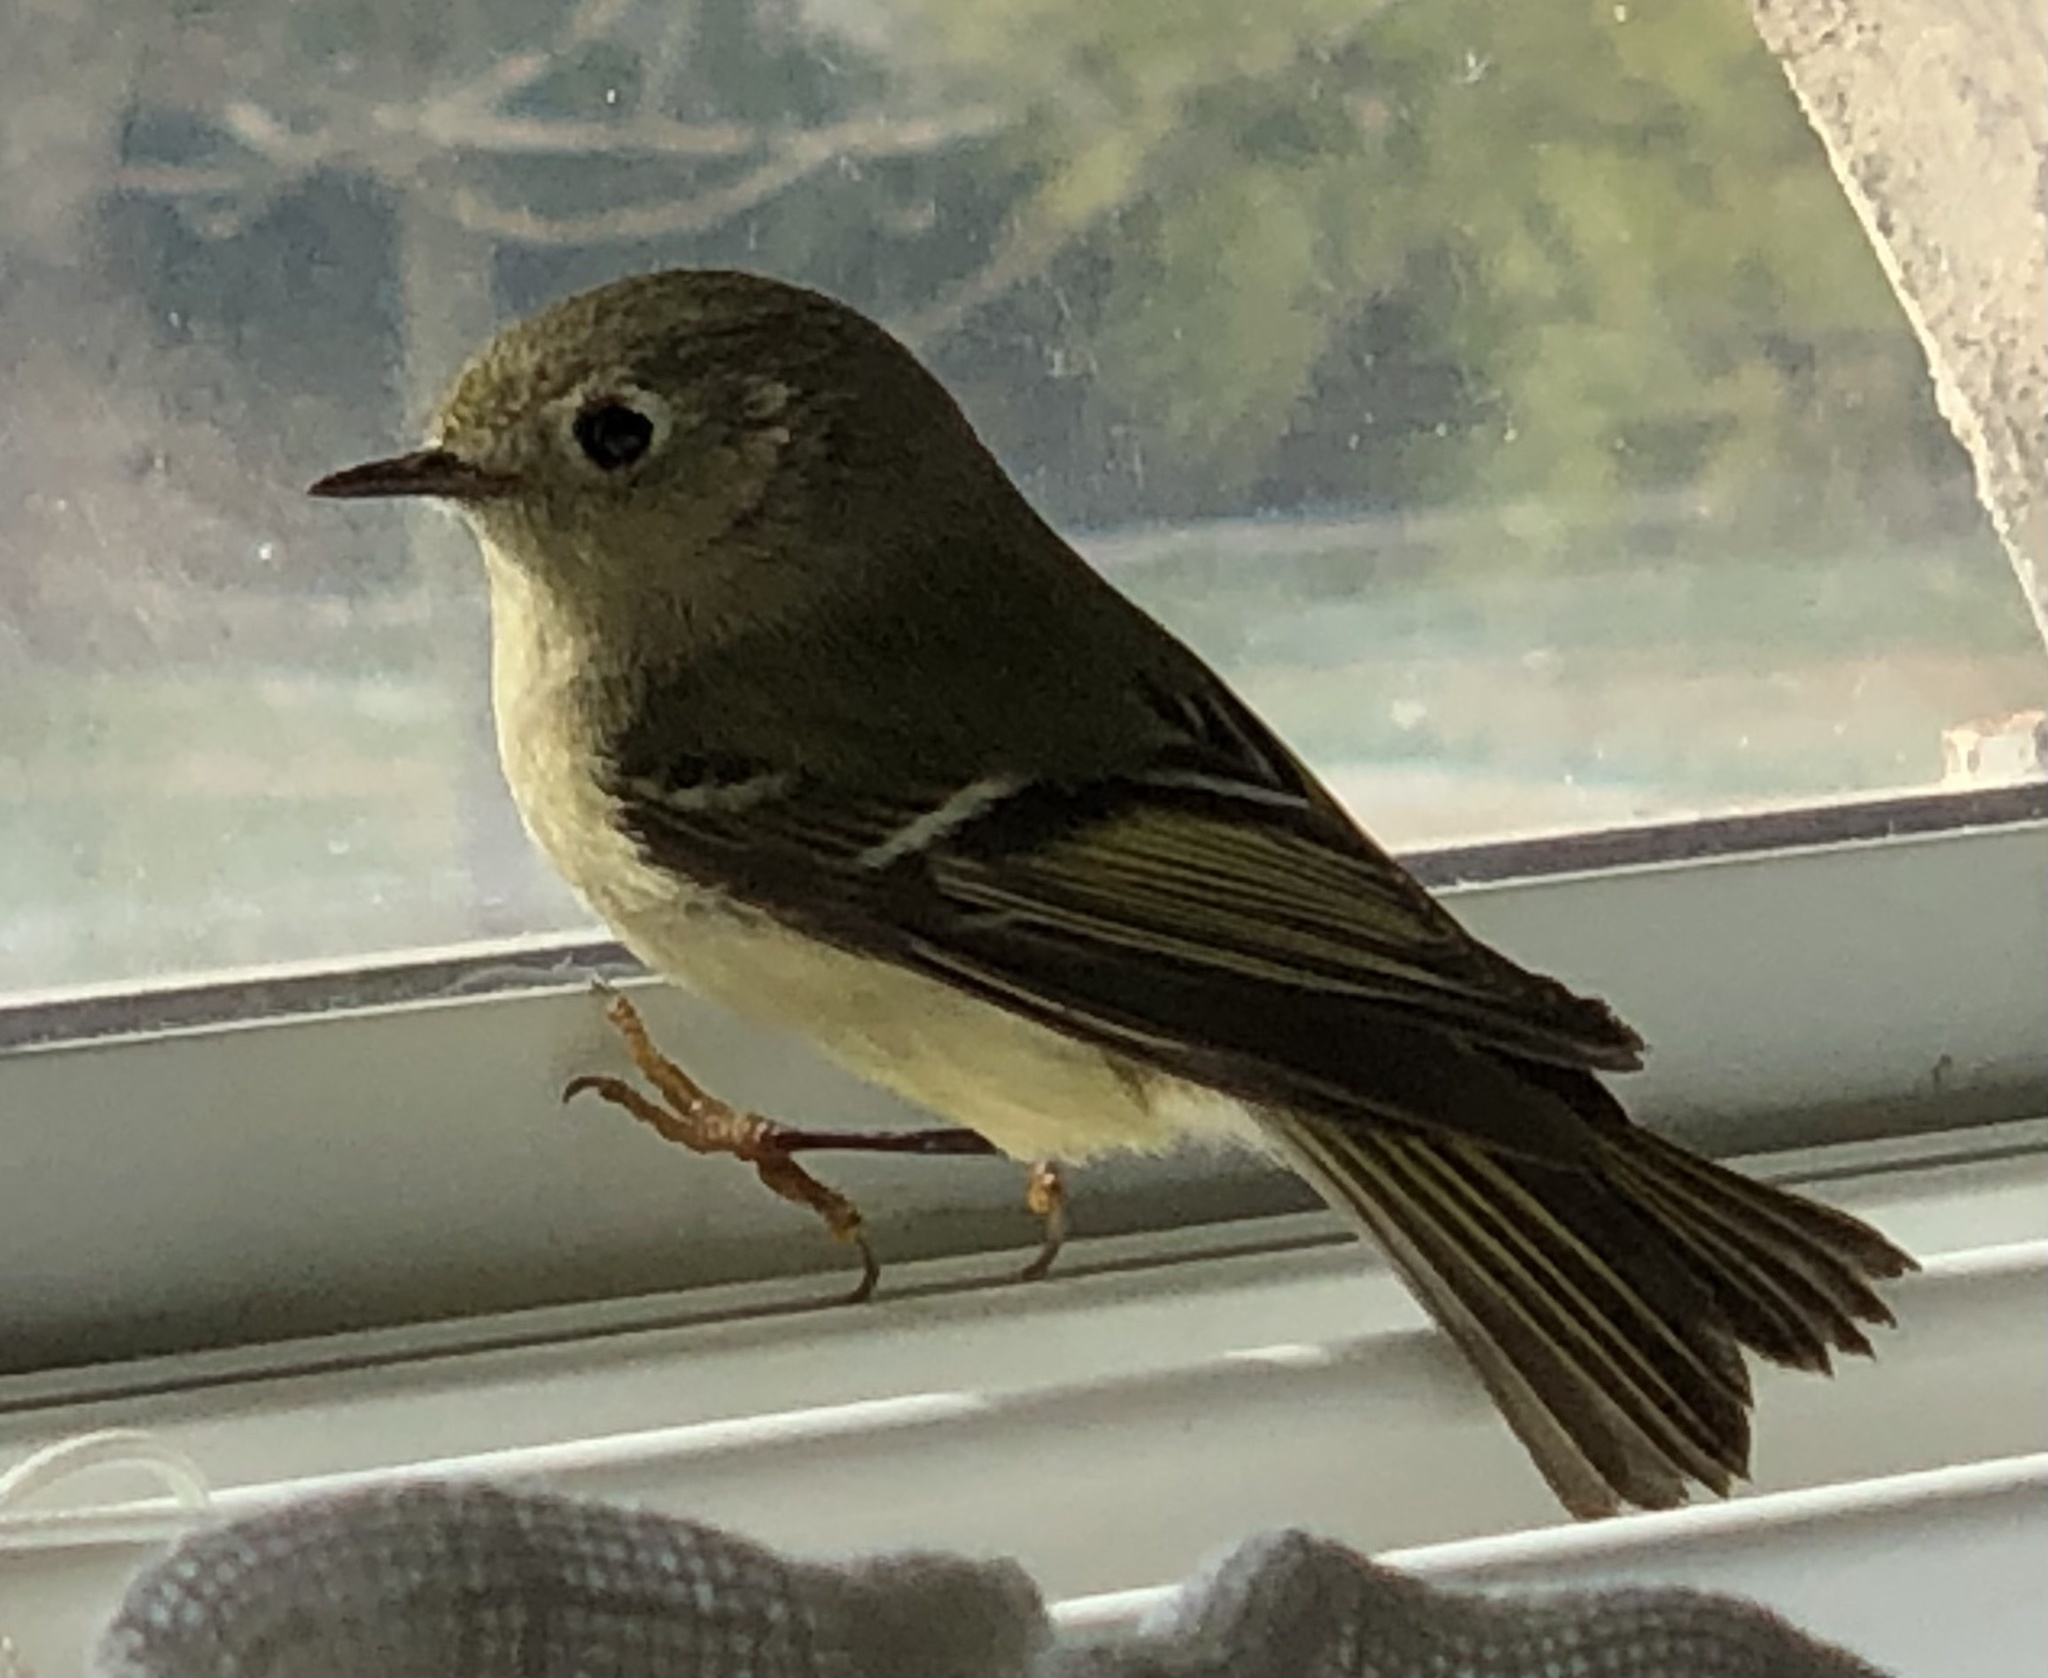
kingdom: Animalia
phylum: Chordata
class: Aves
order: Passeriformes
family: Regulidae
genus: Regulus
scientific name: Regulus calendula
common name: Ruby-crowned kinglet
